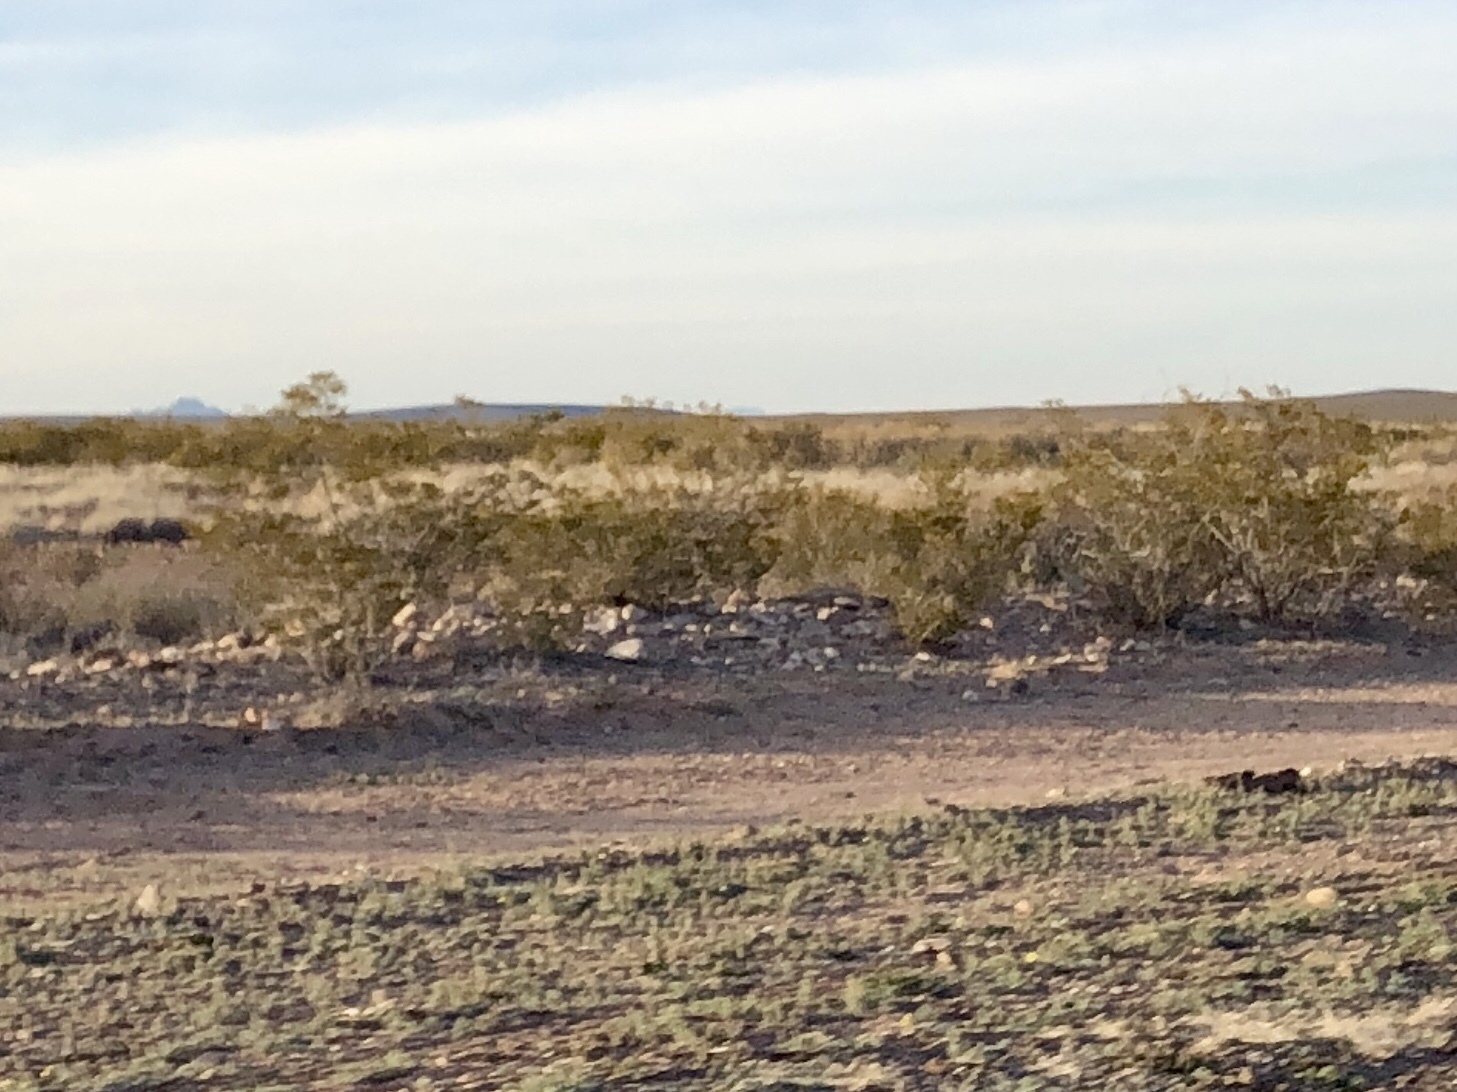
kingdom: Plantae
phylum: Tracheophyta
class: Magnoliopsida
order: Zygophyllales
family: Zygophyllaceae
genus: Larrea
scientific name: Larrea tridentata
